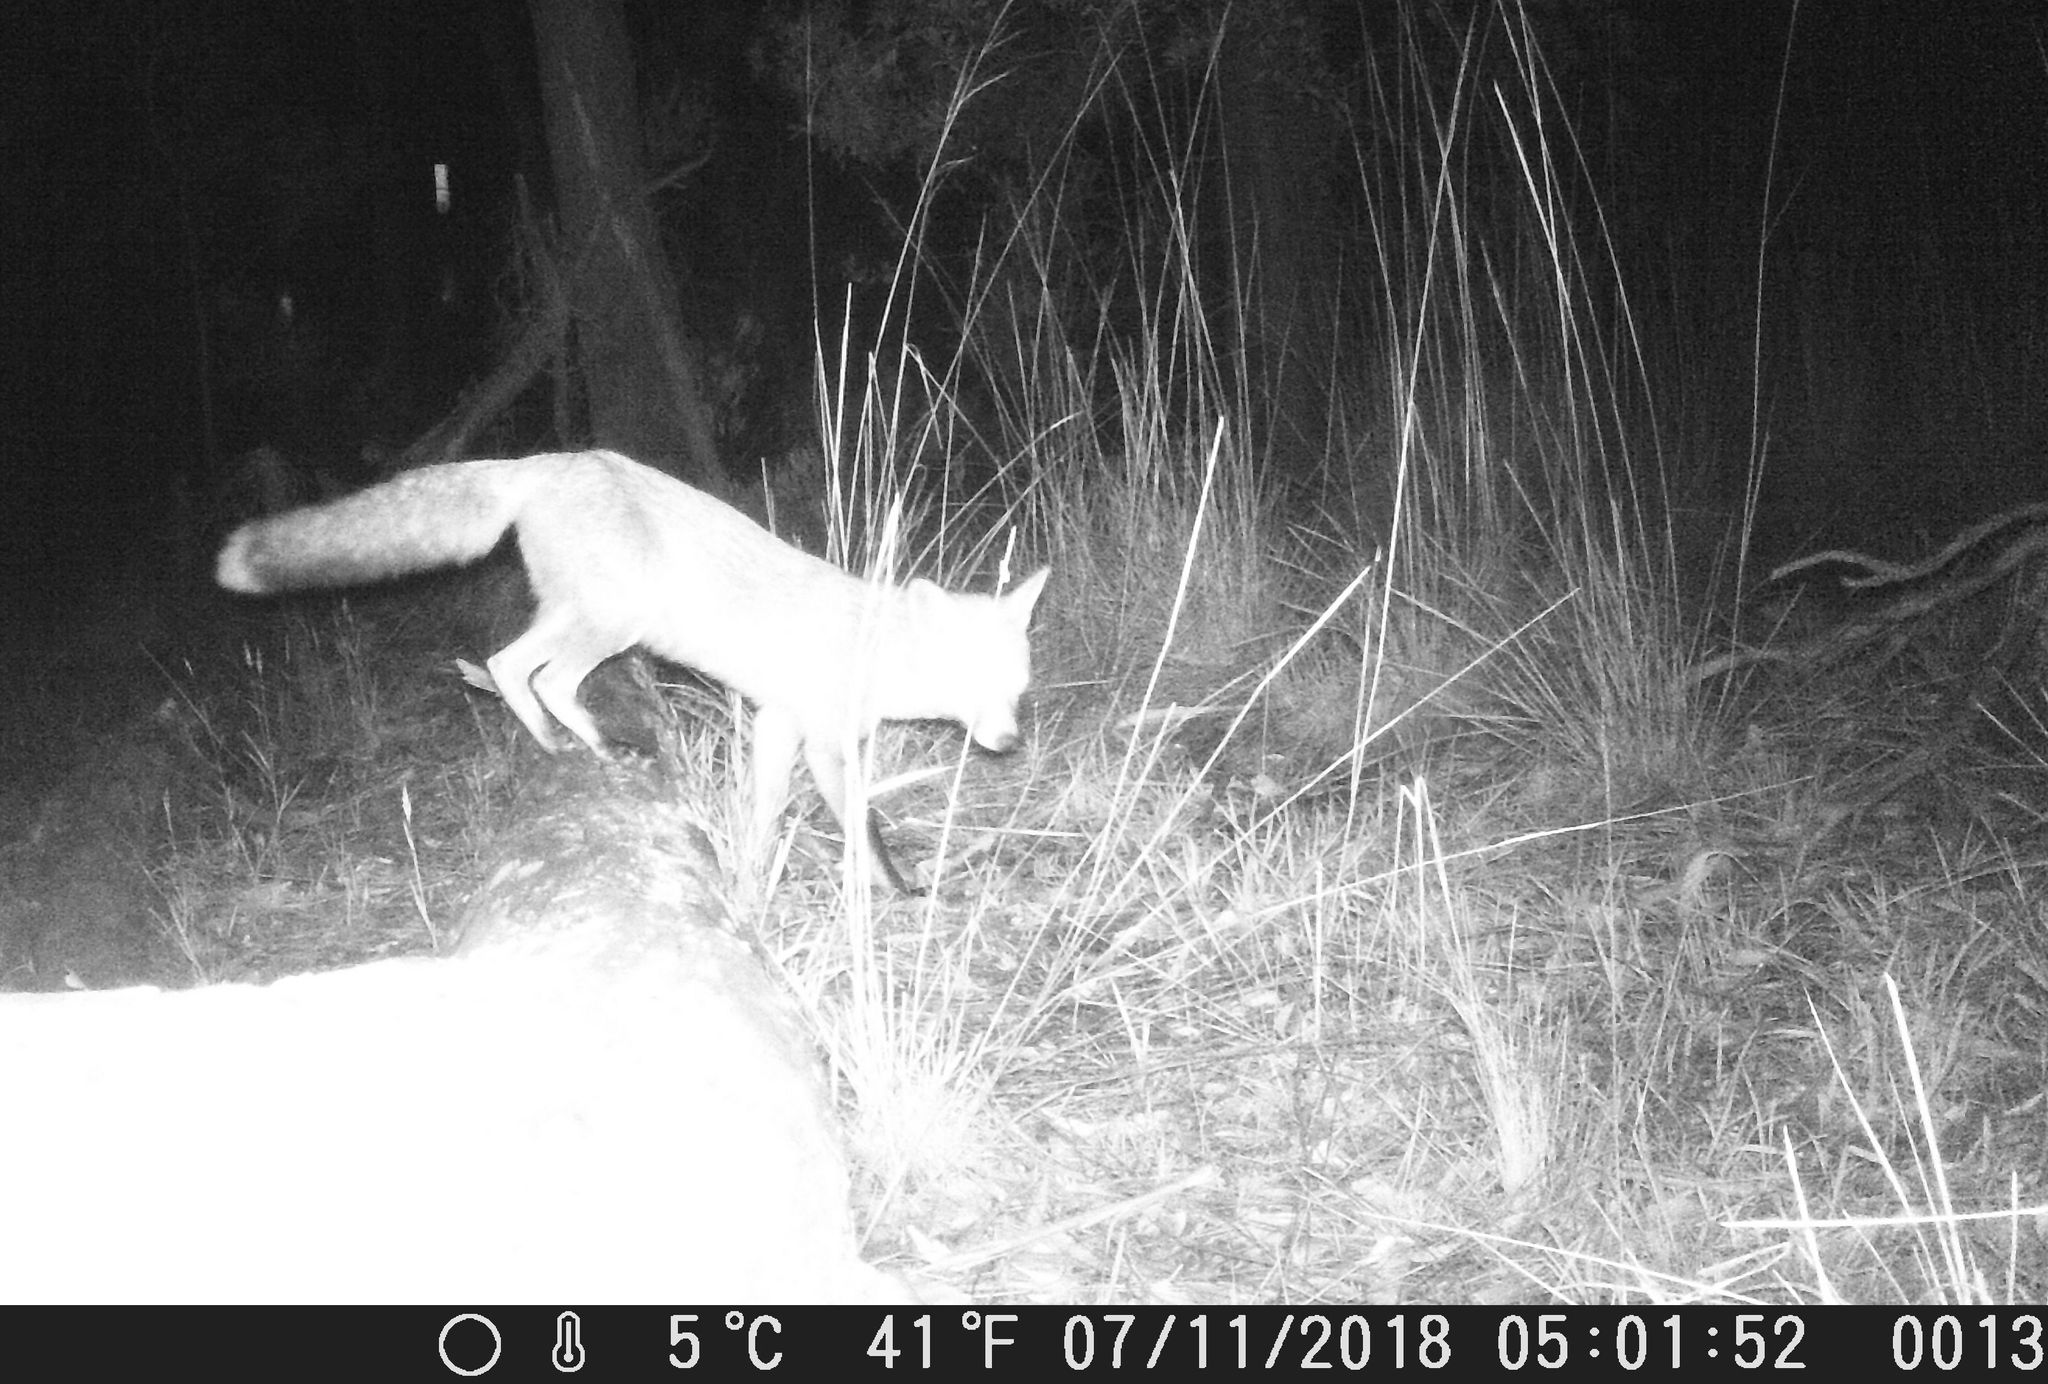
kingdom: Animalia
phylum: Chordata
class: Mammalia
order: Carnivora
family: Canidae
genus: Vulpes
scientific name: Vulpes vulpes
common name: Red fox
